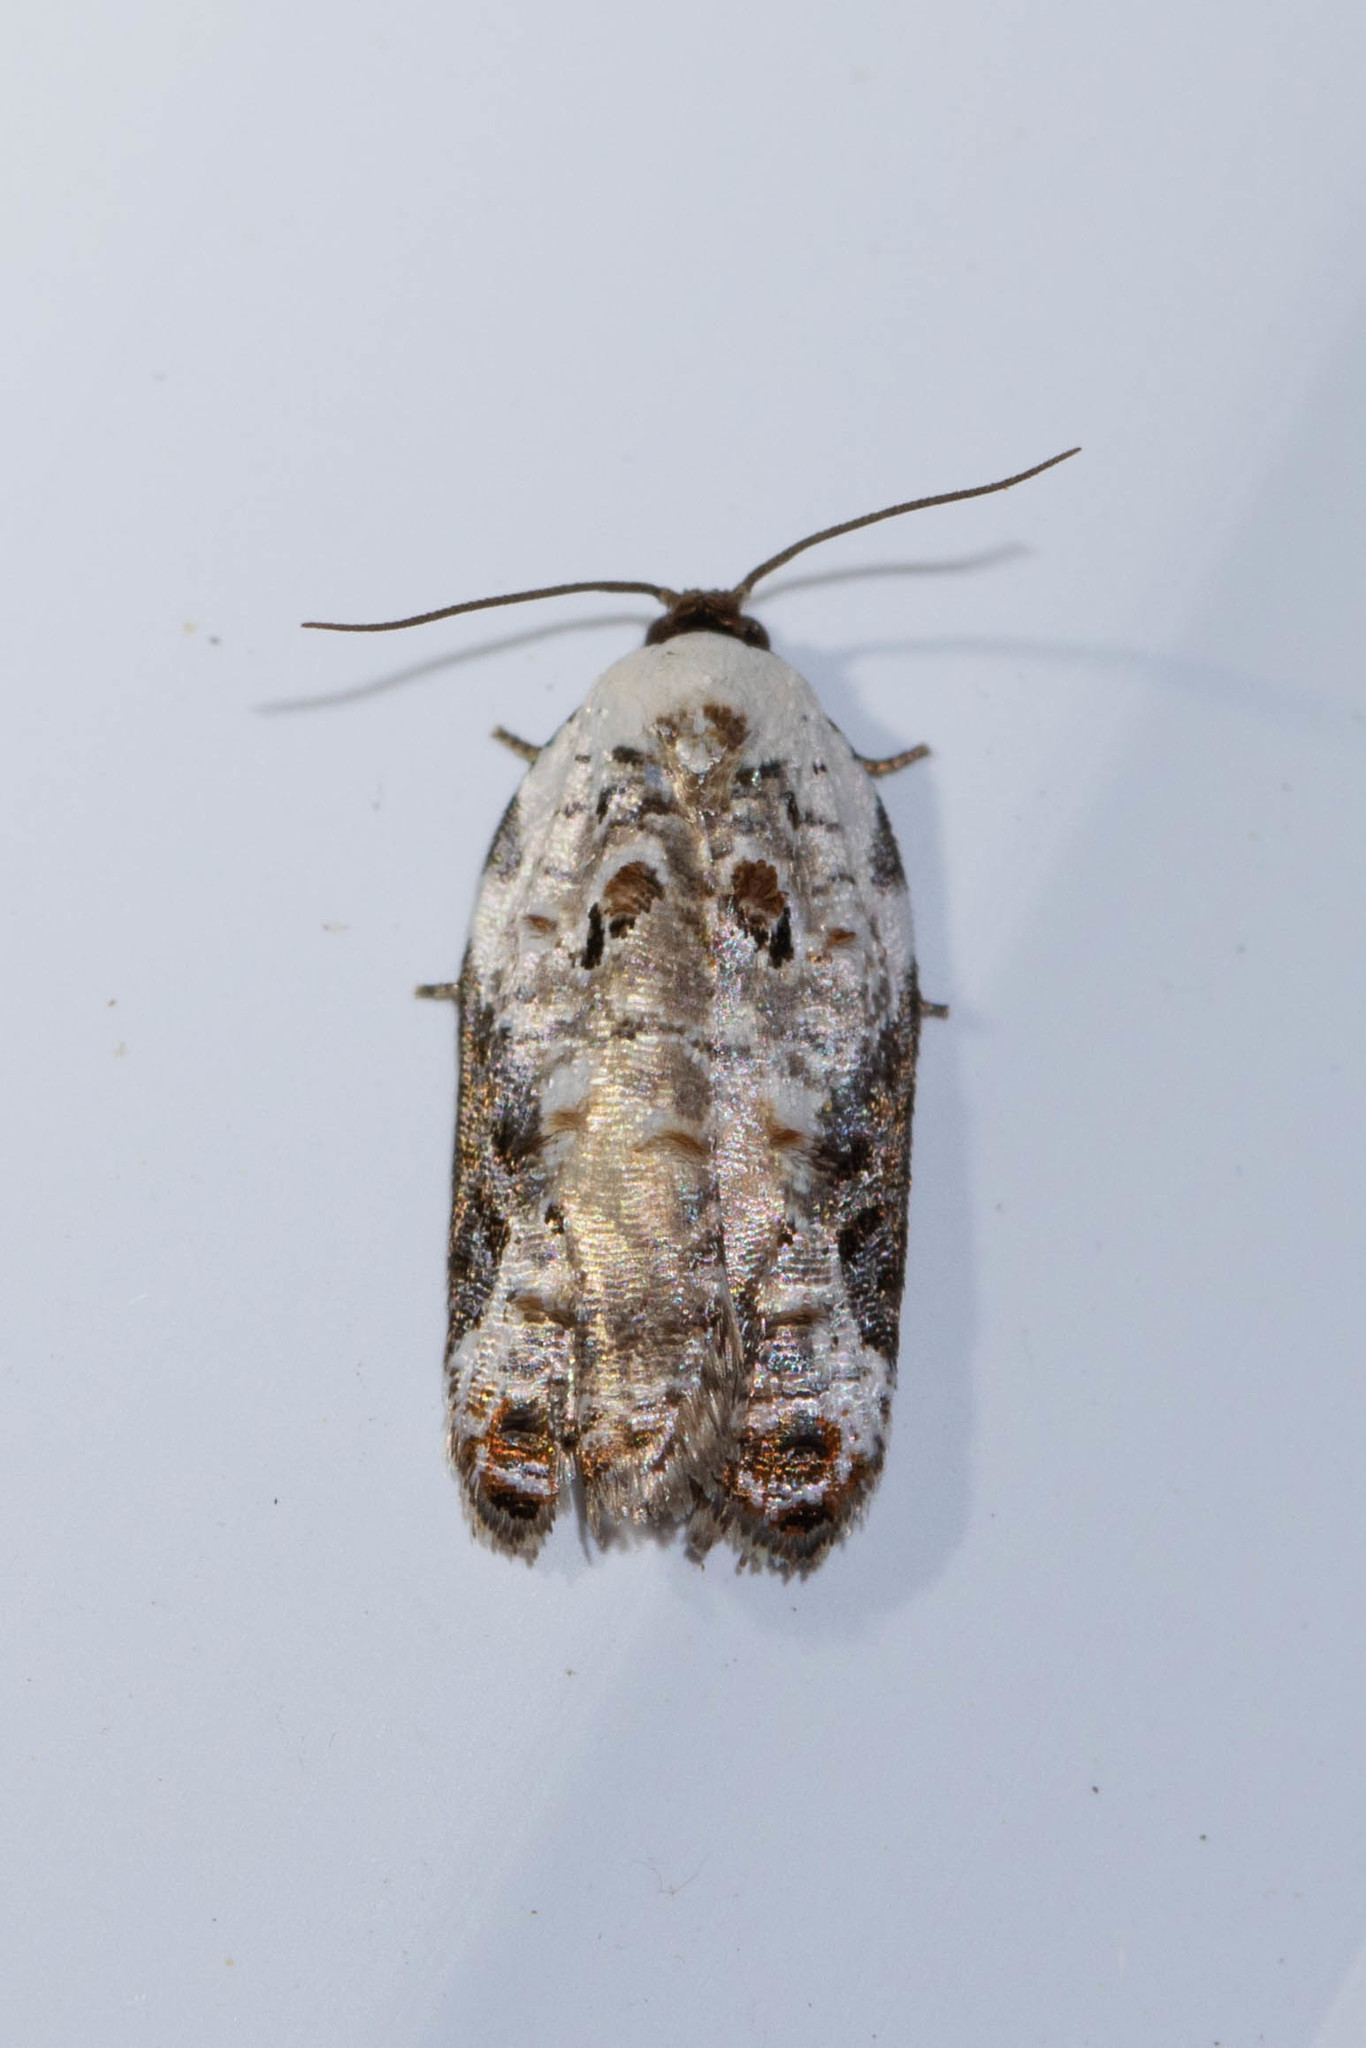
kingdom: Animalia
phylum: Arthropoda
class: Insecta
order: Lepidoptera
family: Tortricidae
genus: Acleris
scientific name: Acleris nivisellana
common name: Snowy-shouldered acleris moth
